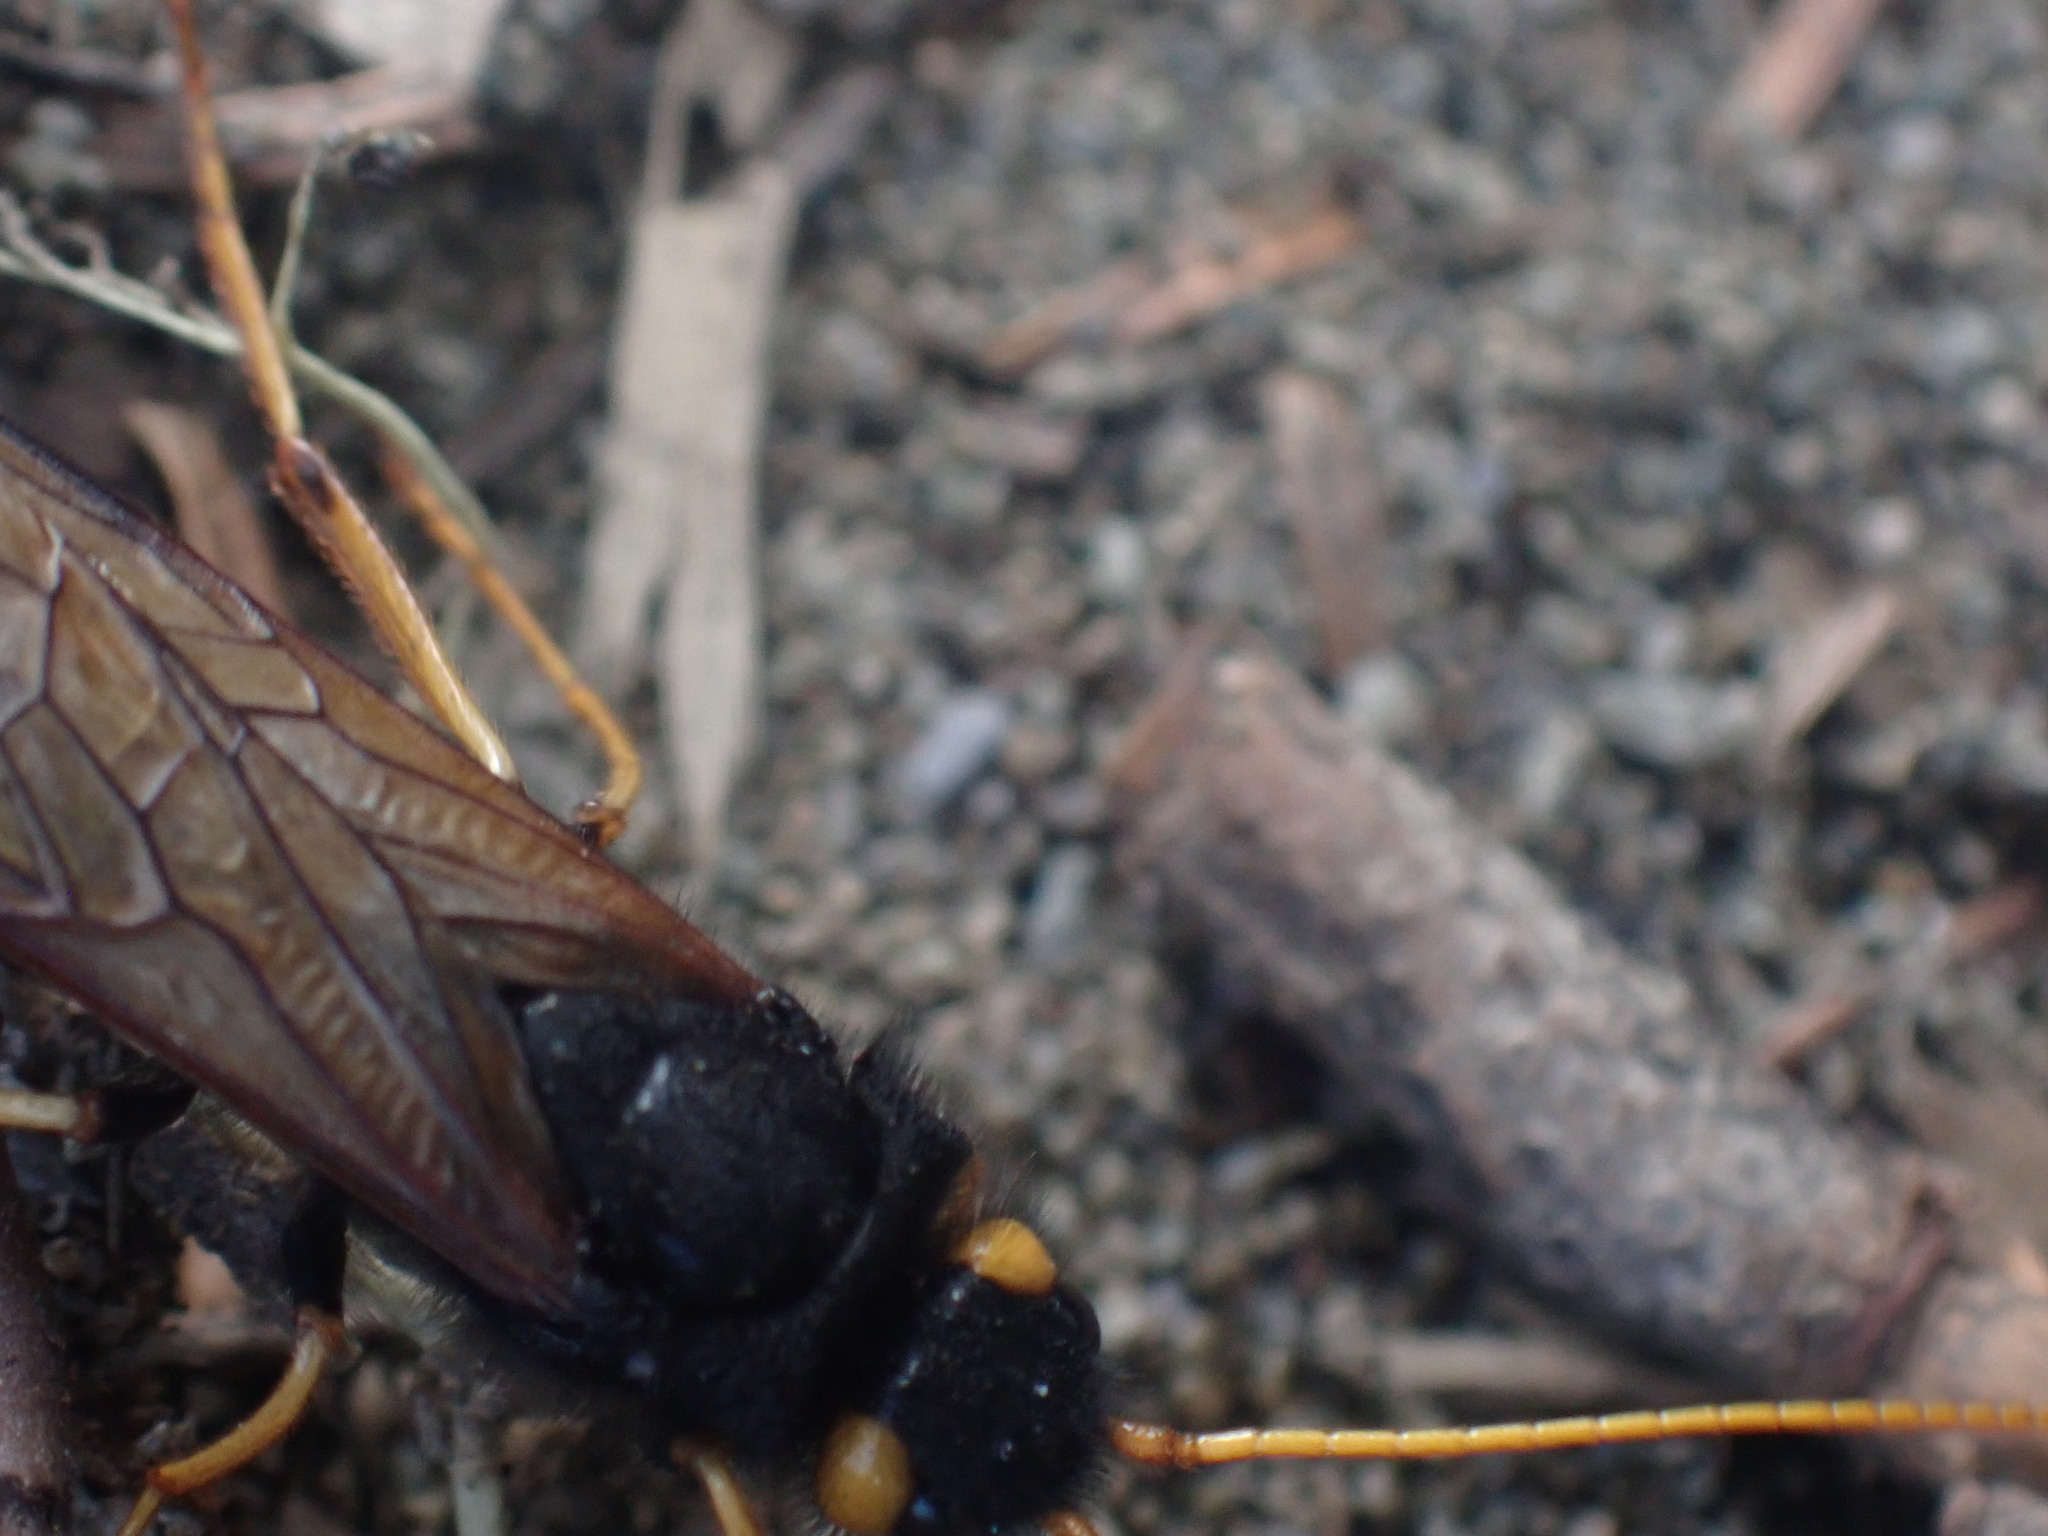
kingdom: Animalia
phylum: Arthropoda
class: Insecta
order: Hymenoptera
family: Siricidae
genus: Urocerus
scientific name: Urocerus flavicornis
